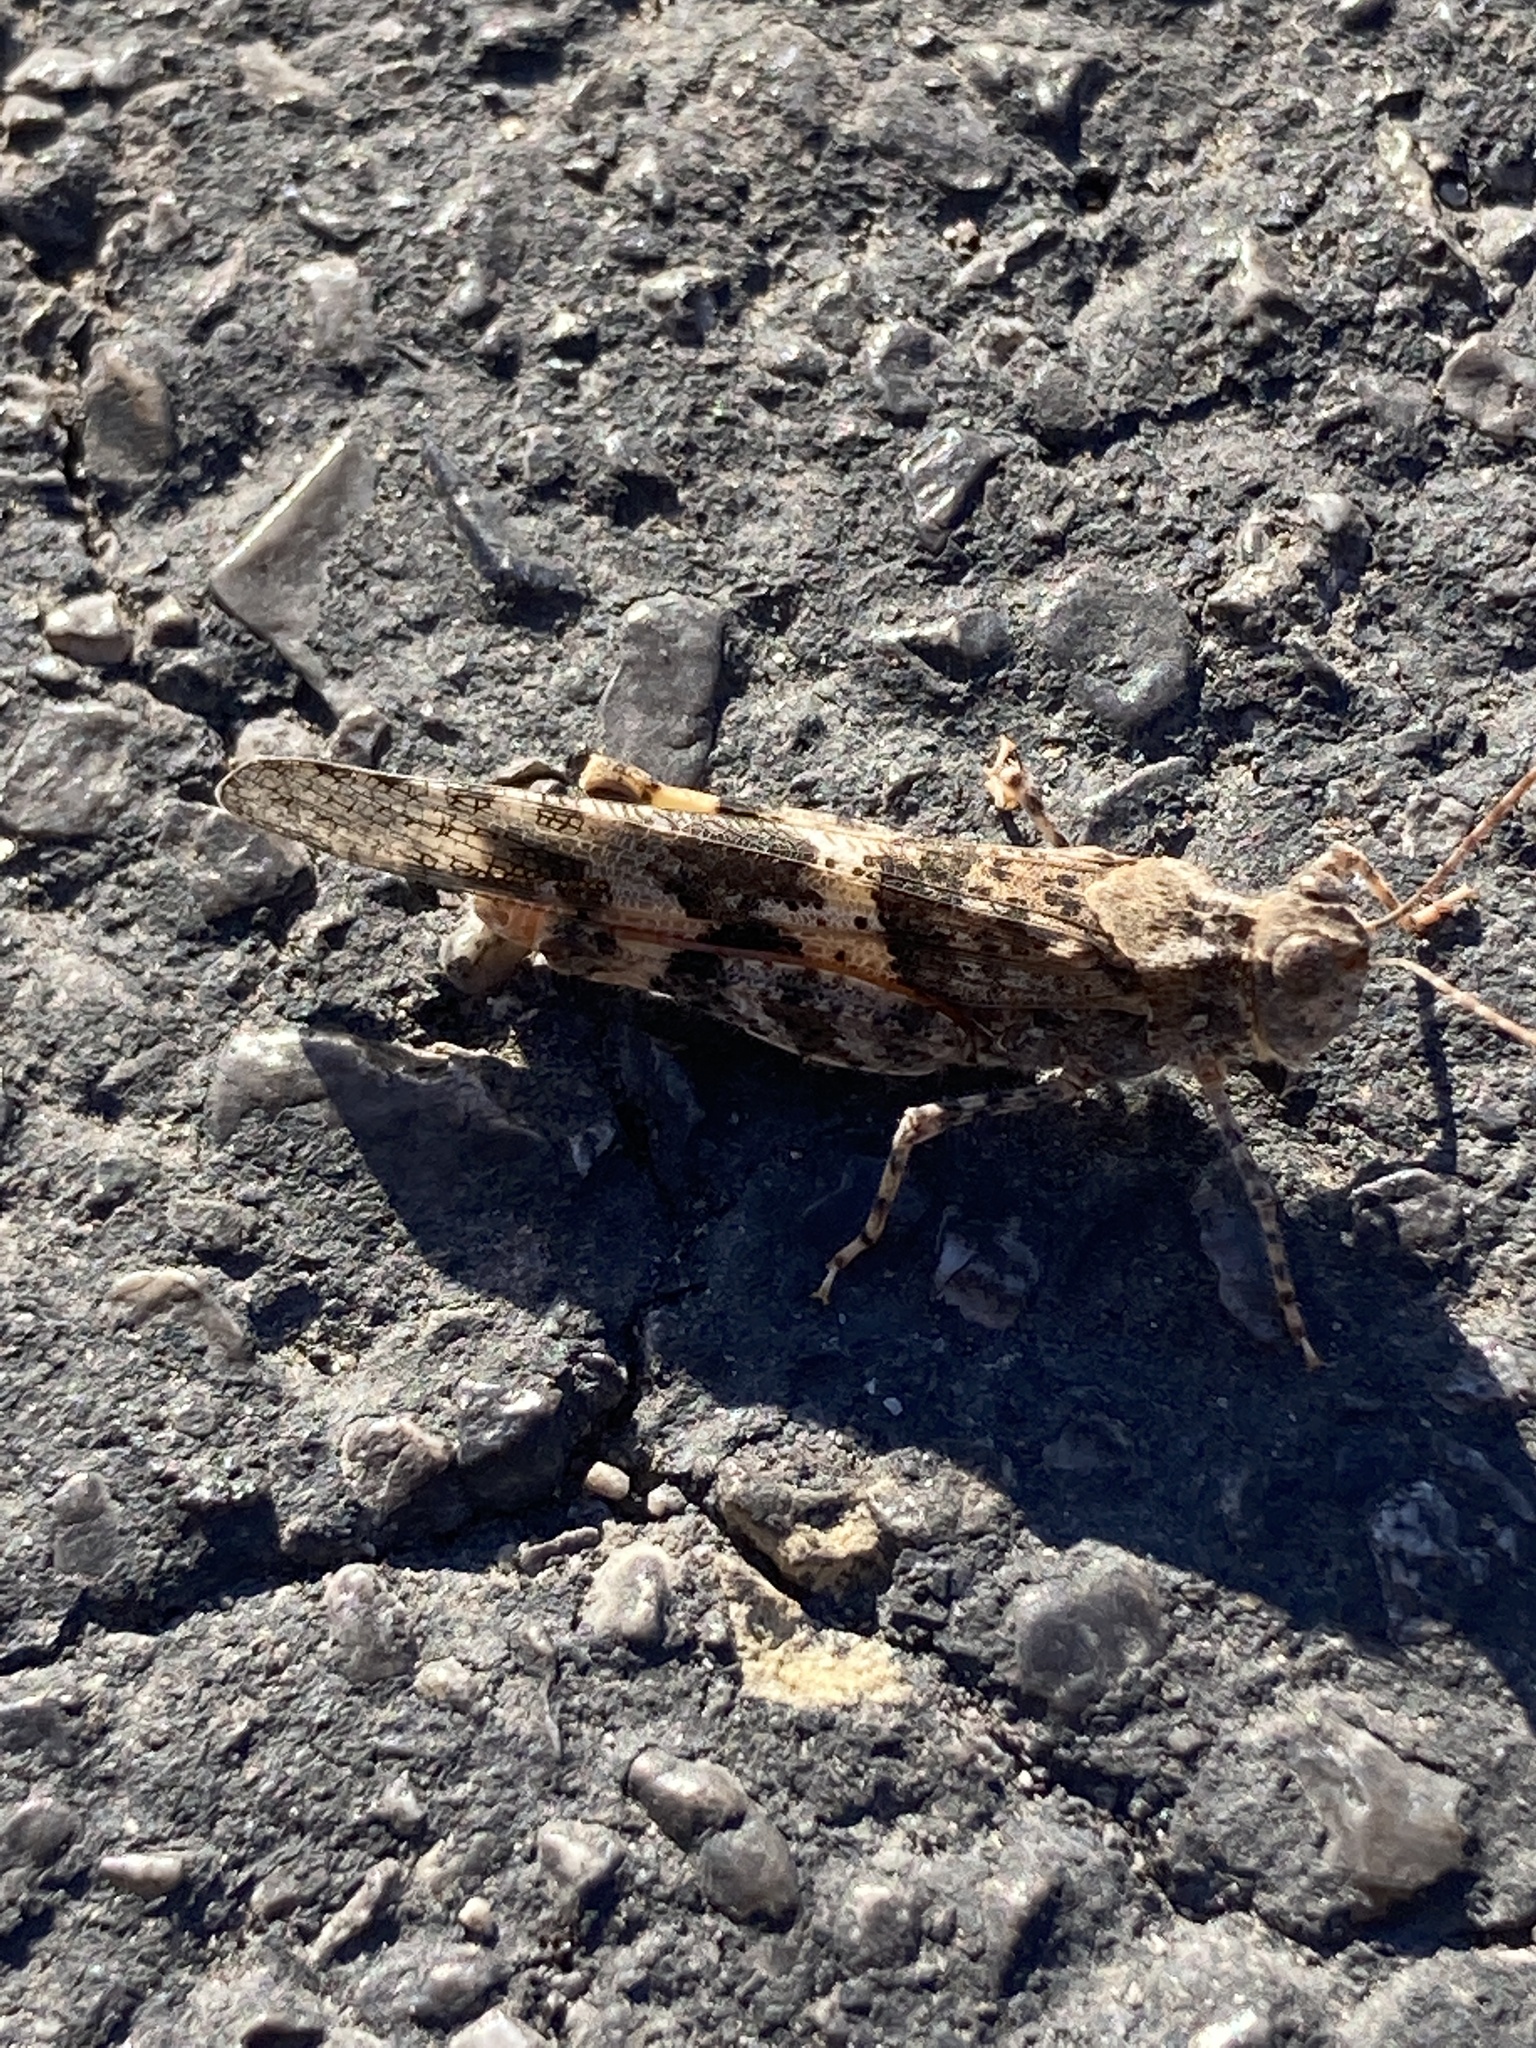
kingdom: Animalia
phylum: Arthropoda
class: Insecta
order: Orthoptera
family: Acrididae
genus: Trimerotropis
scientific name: Trimerotropis pallidipennis
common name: Pallid-winged grasshopper
